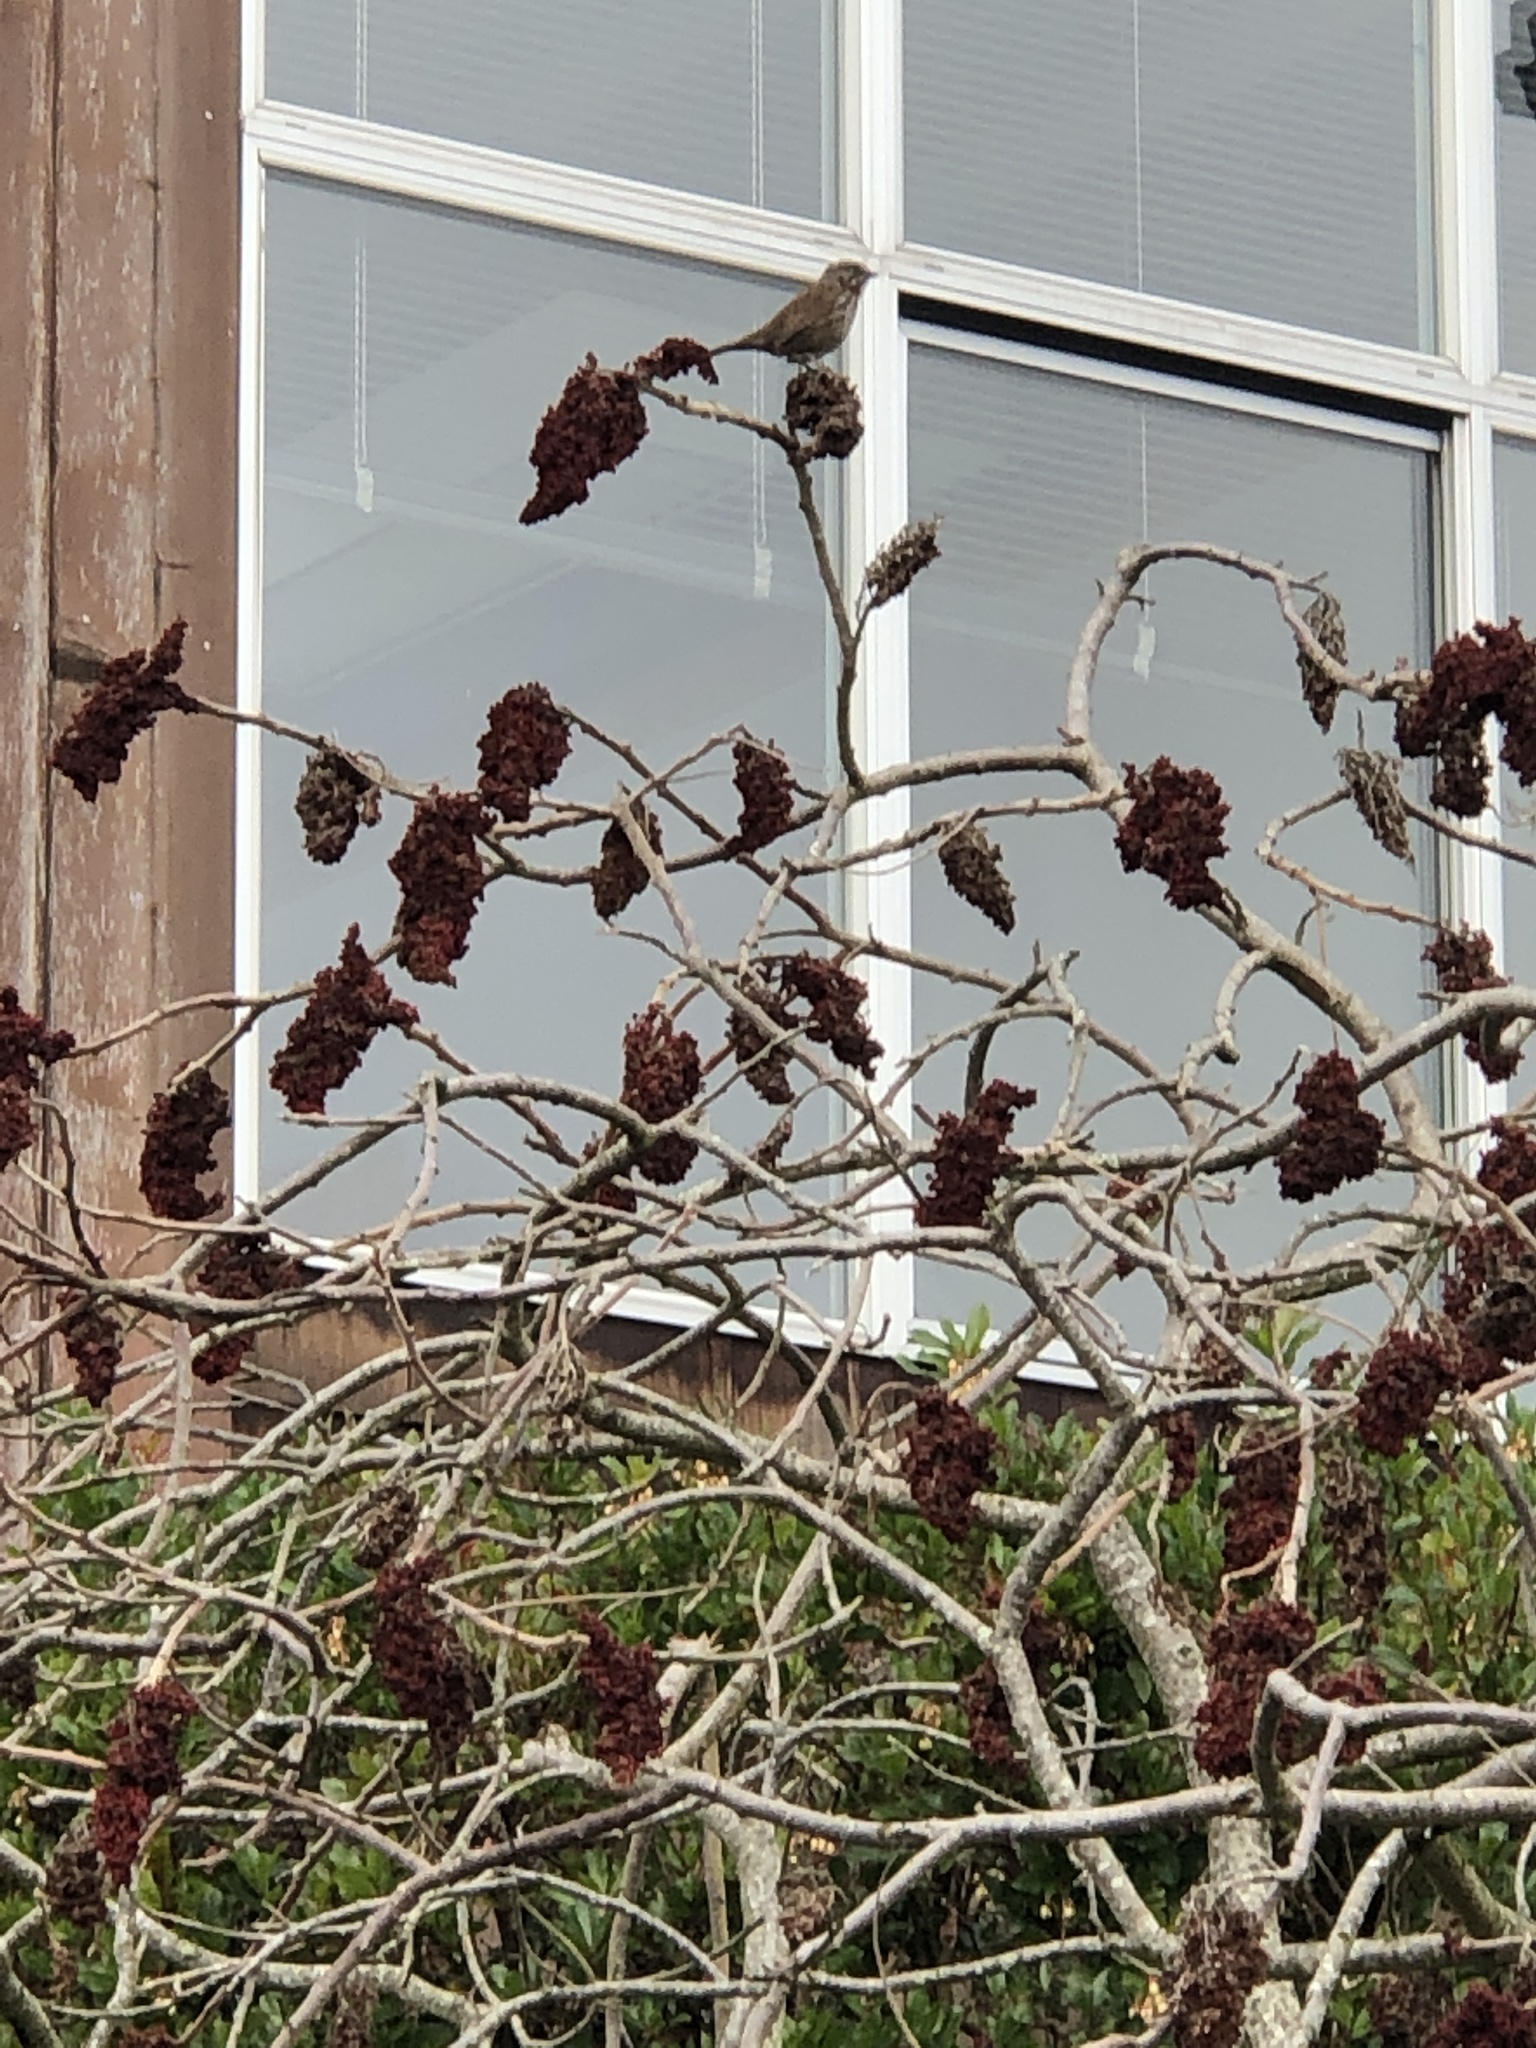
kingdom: Animalia
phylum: Chordata
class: Aves
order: Passeriformes
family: Passerellidae
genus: Melospiza
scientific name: Melospiza melodia
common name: Song sparrow
